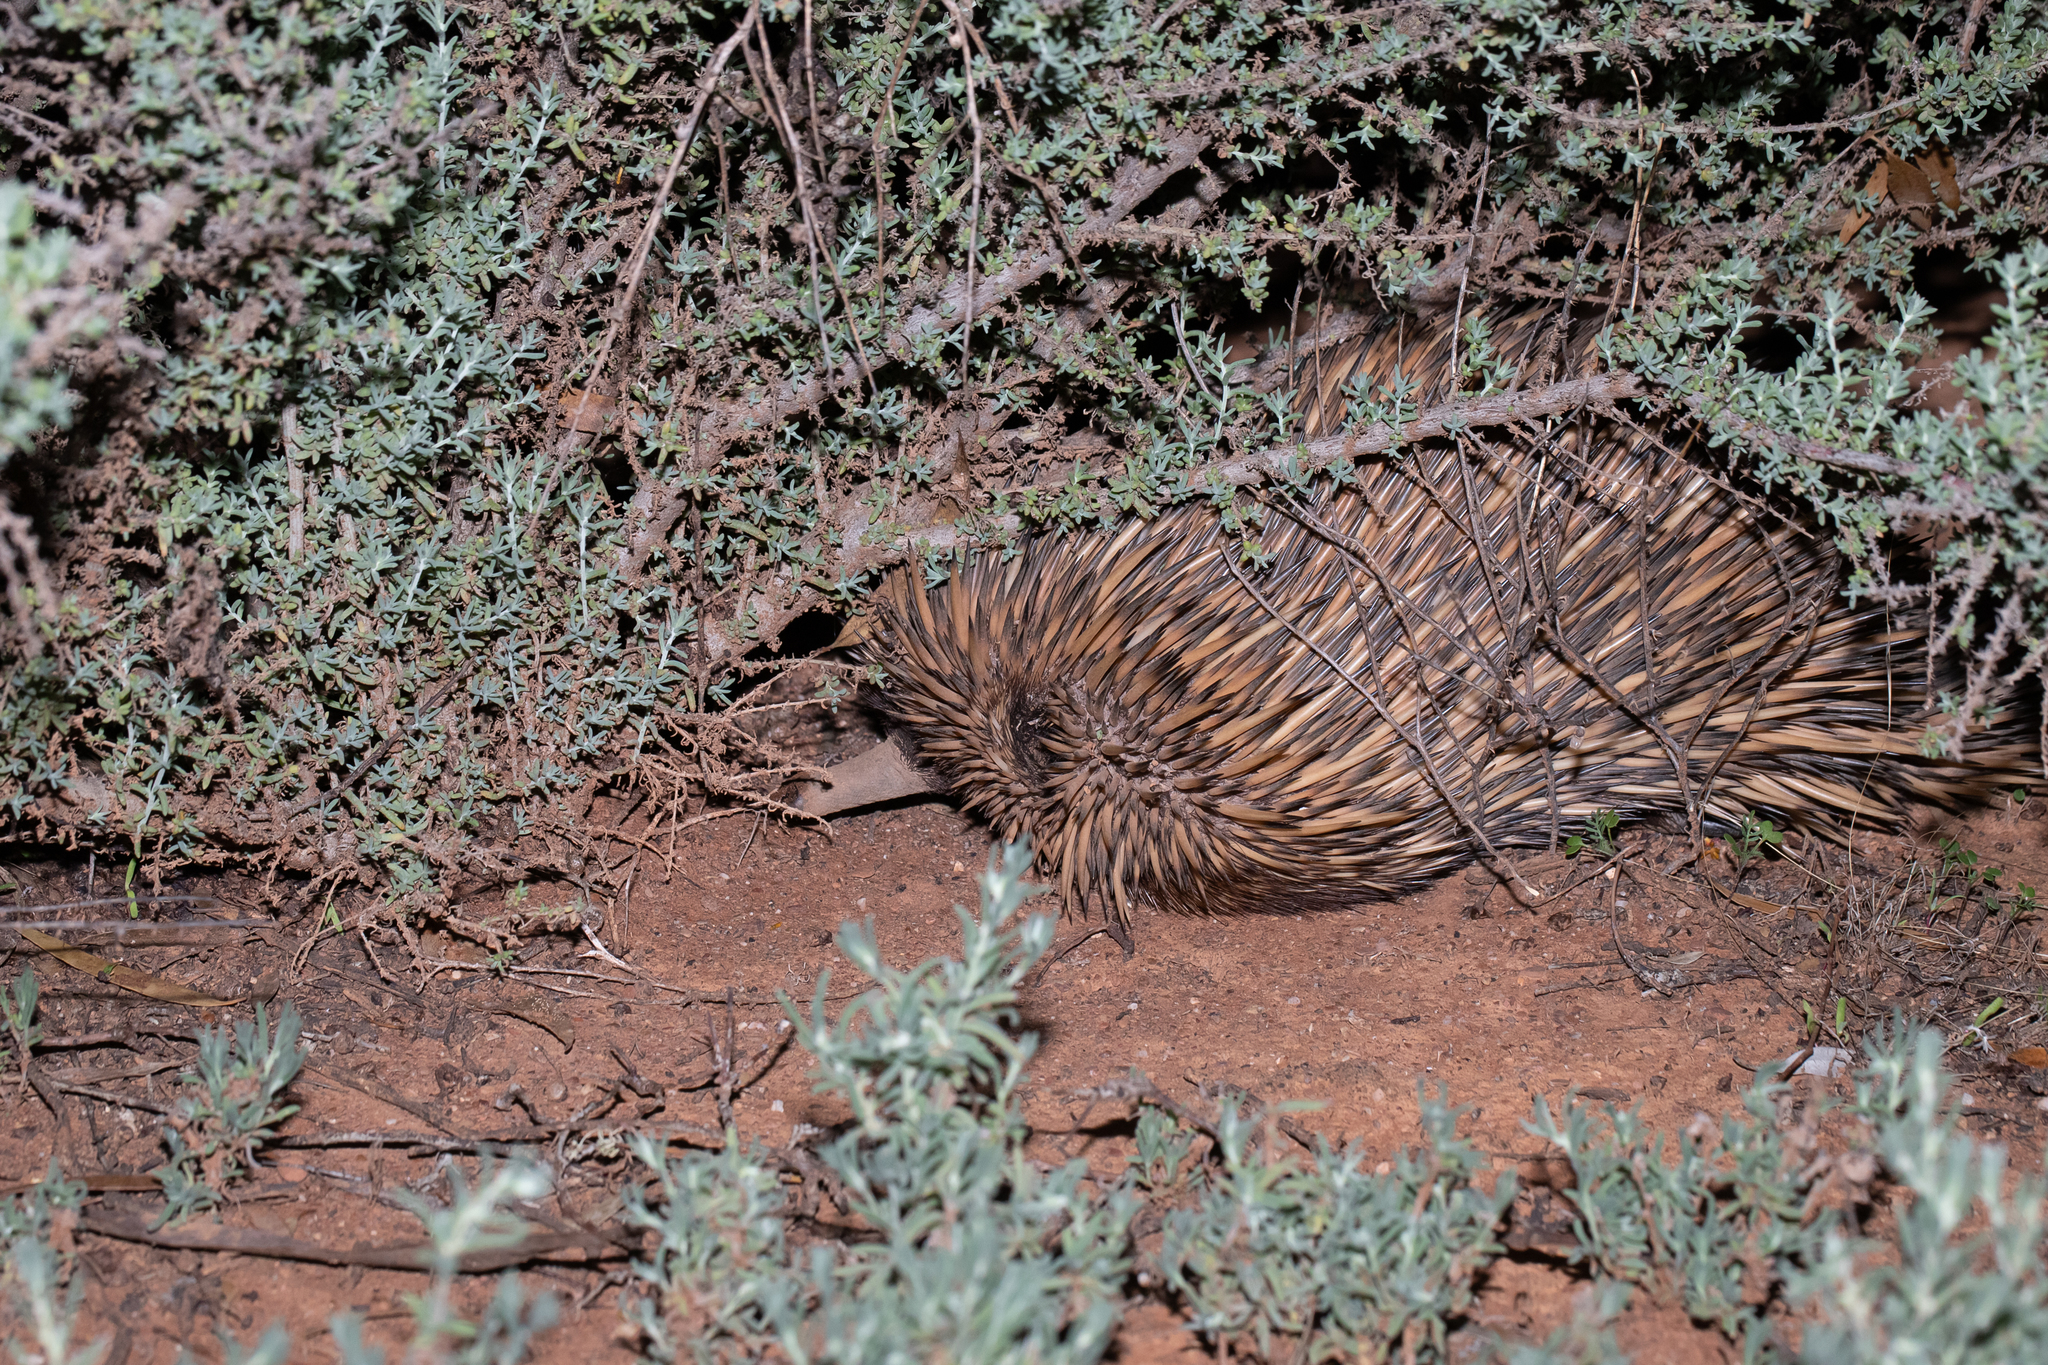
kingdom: Animalia
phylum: Chordata
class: Mammalia
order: Monotremata
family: Tachyglossidae
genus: Tachyglossus
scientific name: Tachyglossus aculeatus
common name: Short-beaked echidna
